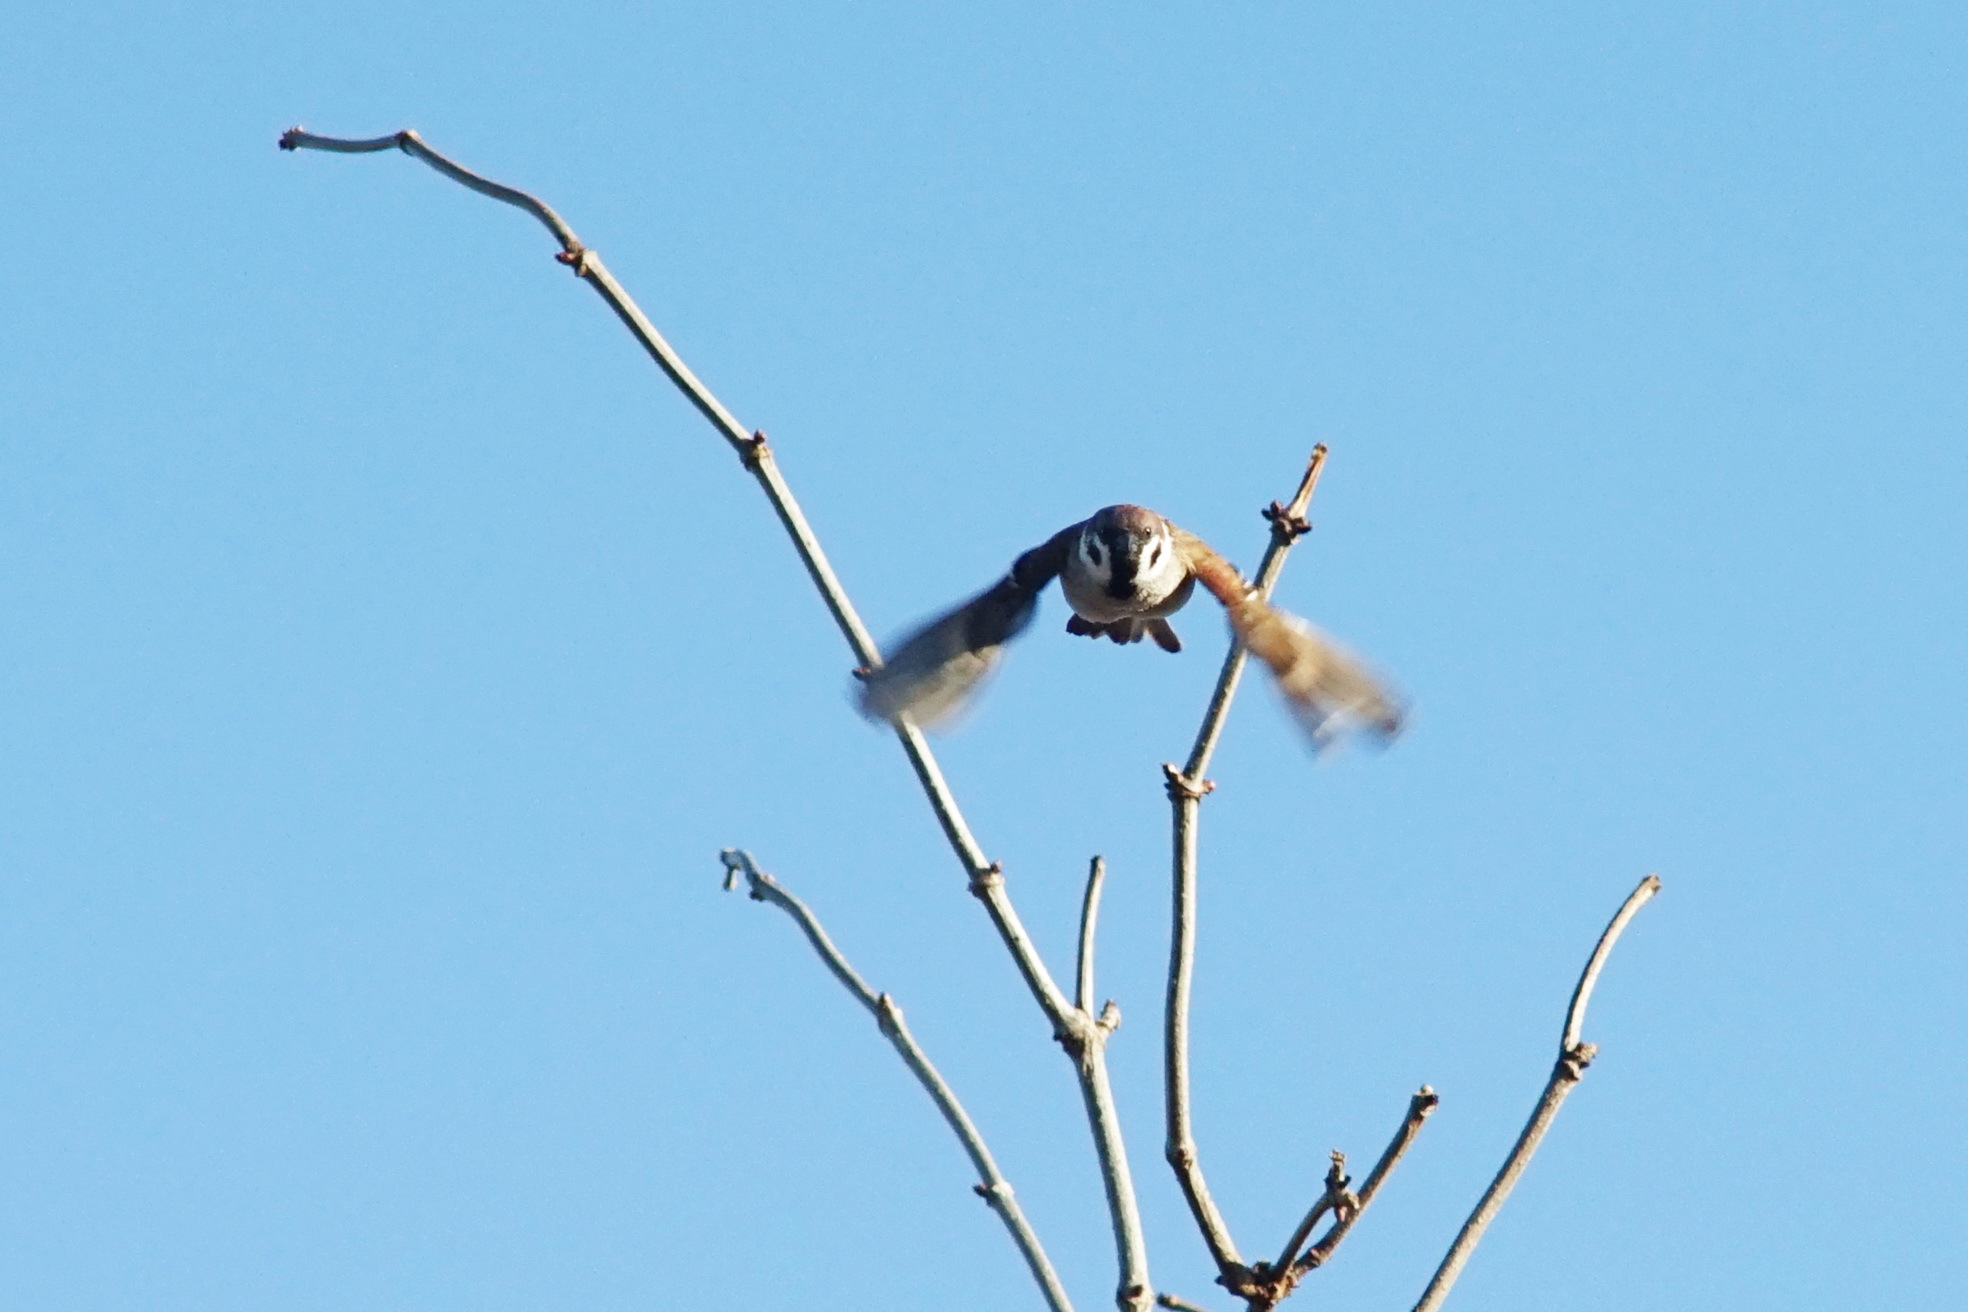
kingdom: Animalia
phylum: Chordata
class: Aves
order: Passeriformes
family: Passeridae
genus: Passer
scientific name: Passer montanus
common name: Eurasian tree sparrow
